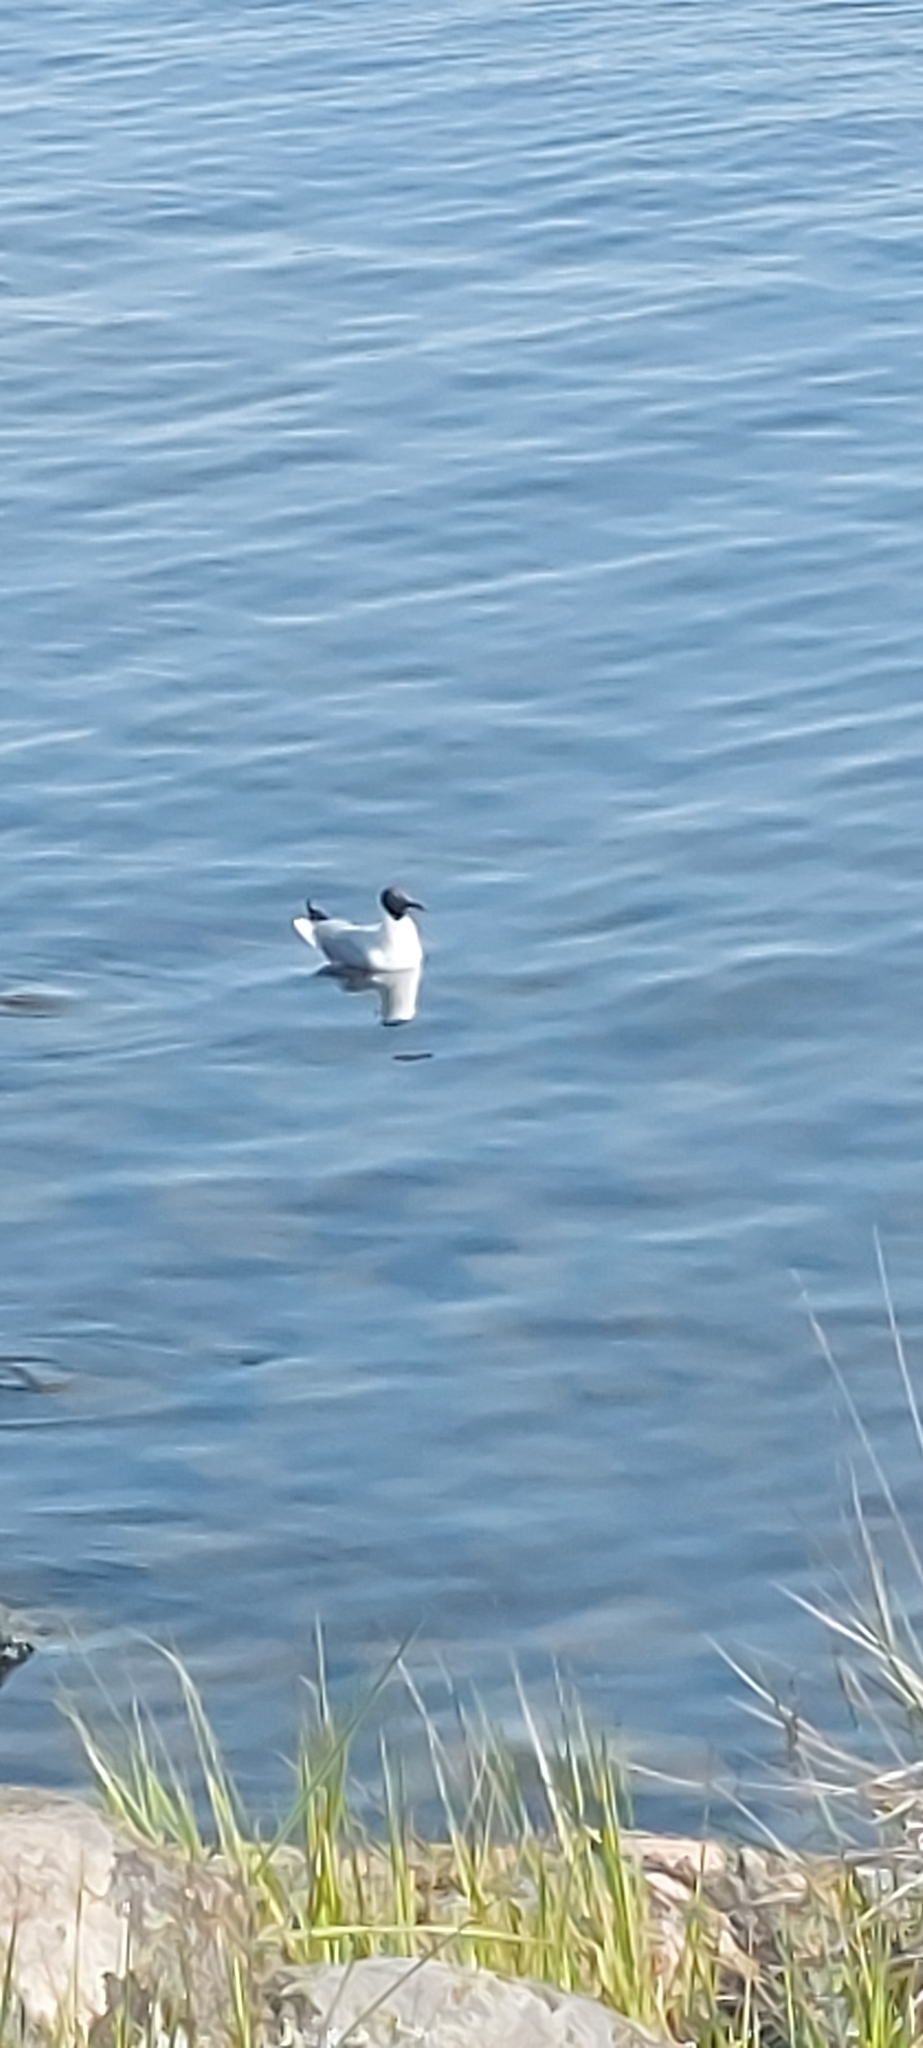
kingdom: Animalia
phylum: Chordata
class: Aves
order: Charadriiformes
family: Laridae
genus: Chroicocephalus
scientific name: Chroicocephalus ridibundus
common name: Black-headed gull
